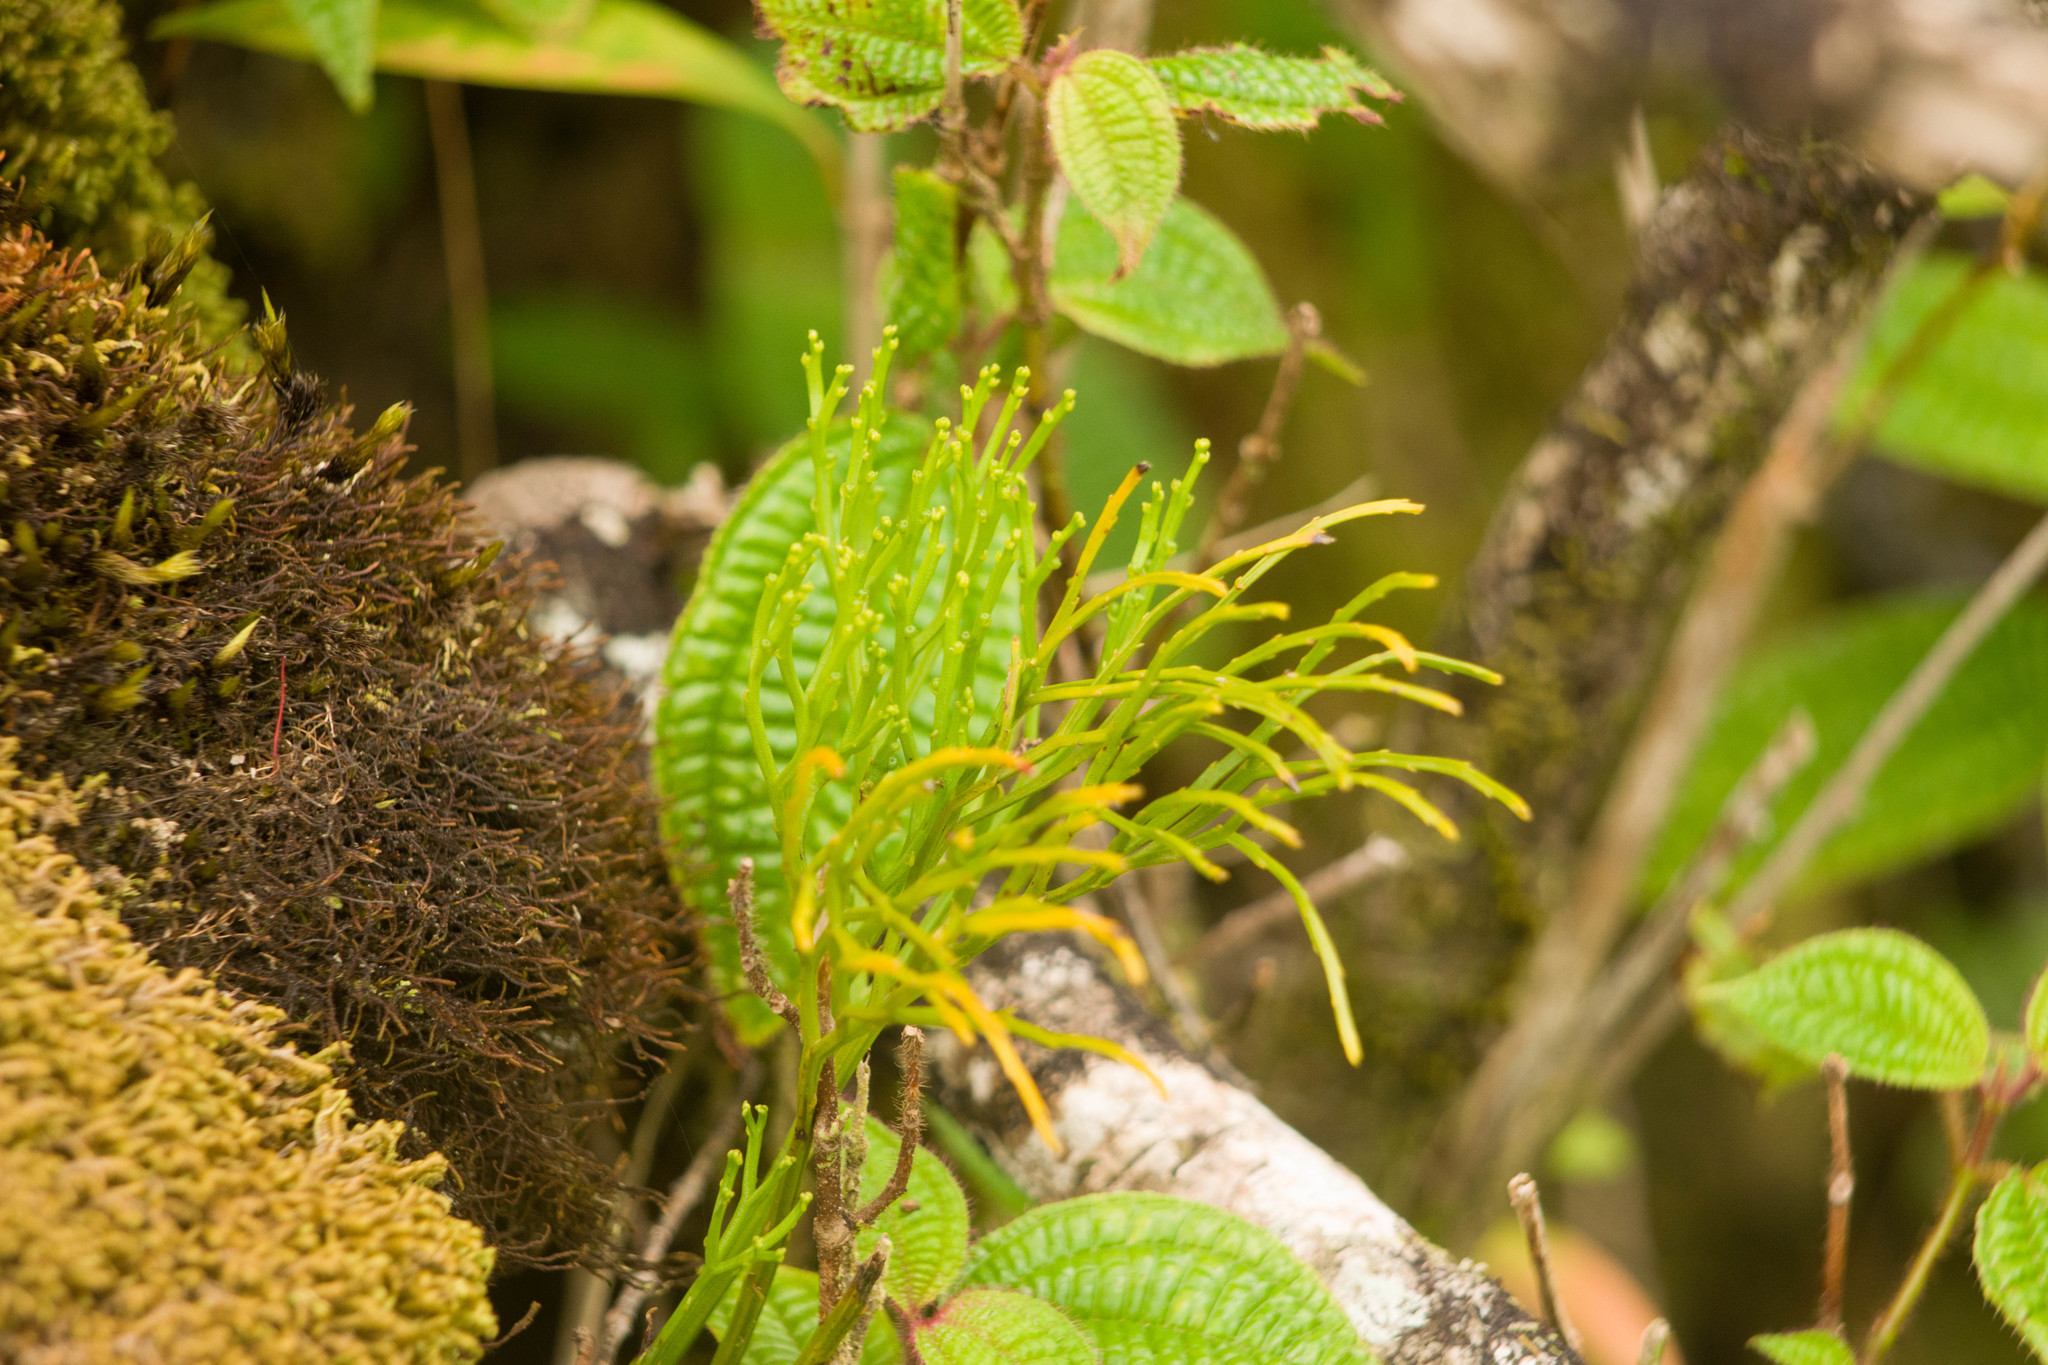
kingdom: Plantae
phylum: Tracheophyta
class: Polypodiopsida
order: Psilotales
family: Psilotaceae
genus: Psilotum
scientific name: Psilotum nudum
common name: Skeleton fork fern
